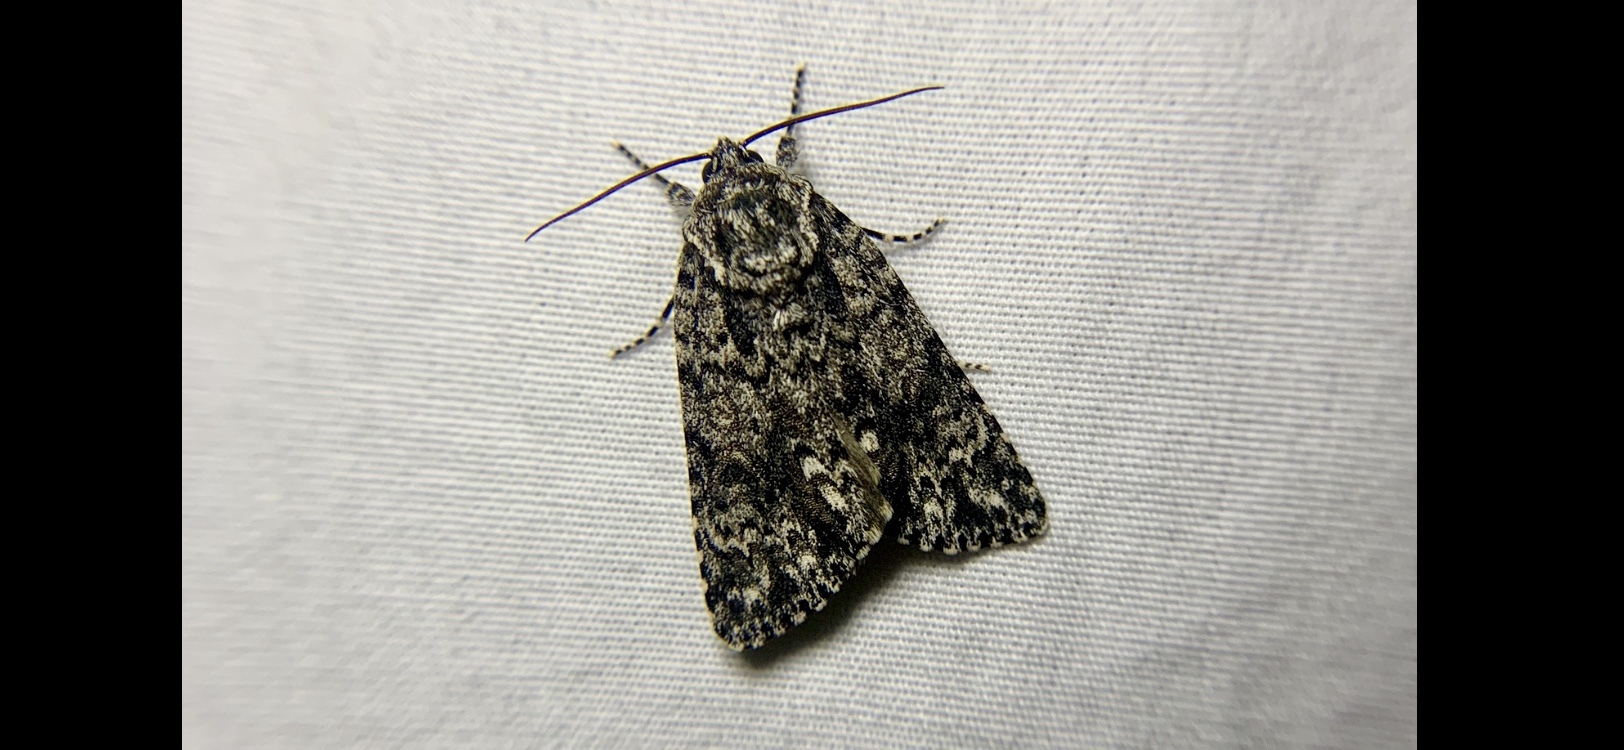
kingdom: Animalia
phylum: Arthropoda
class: Insecta
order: Lepidoptera
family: Noctuidae
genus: Acronicta
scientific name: Acronicta noctivaga
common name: Night-wandering dagger
